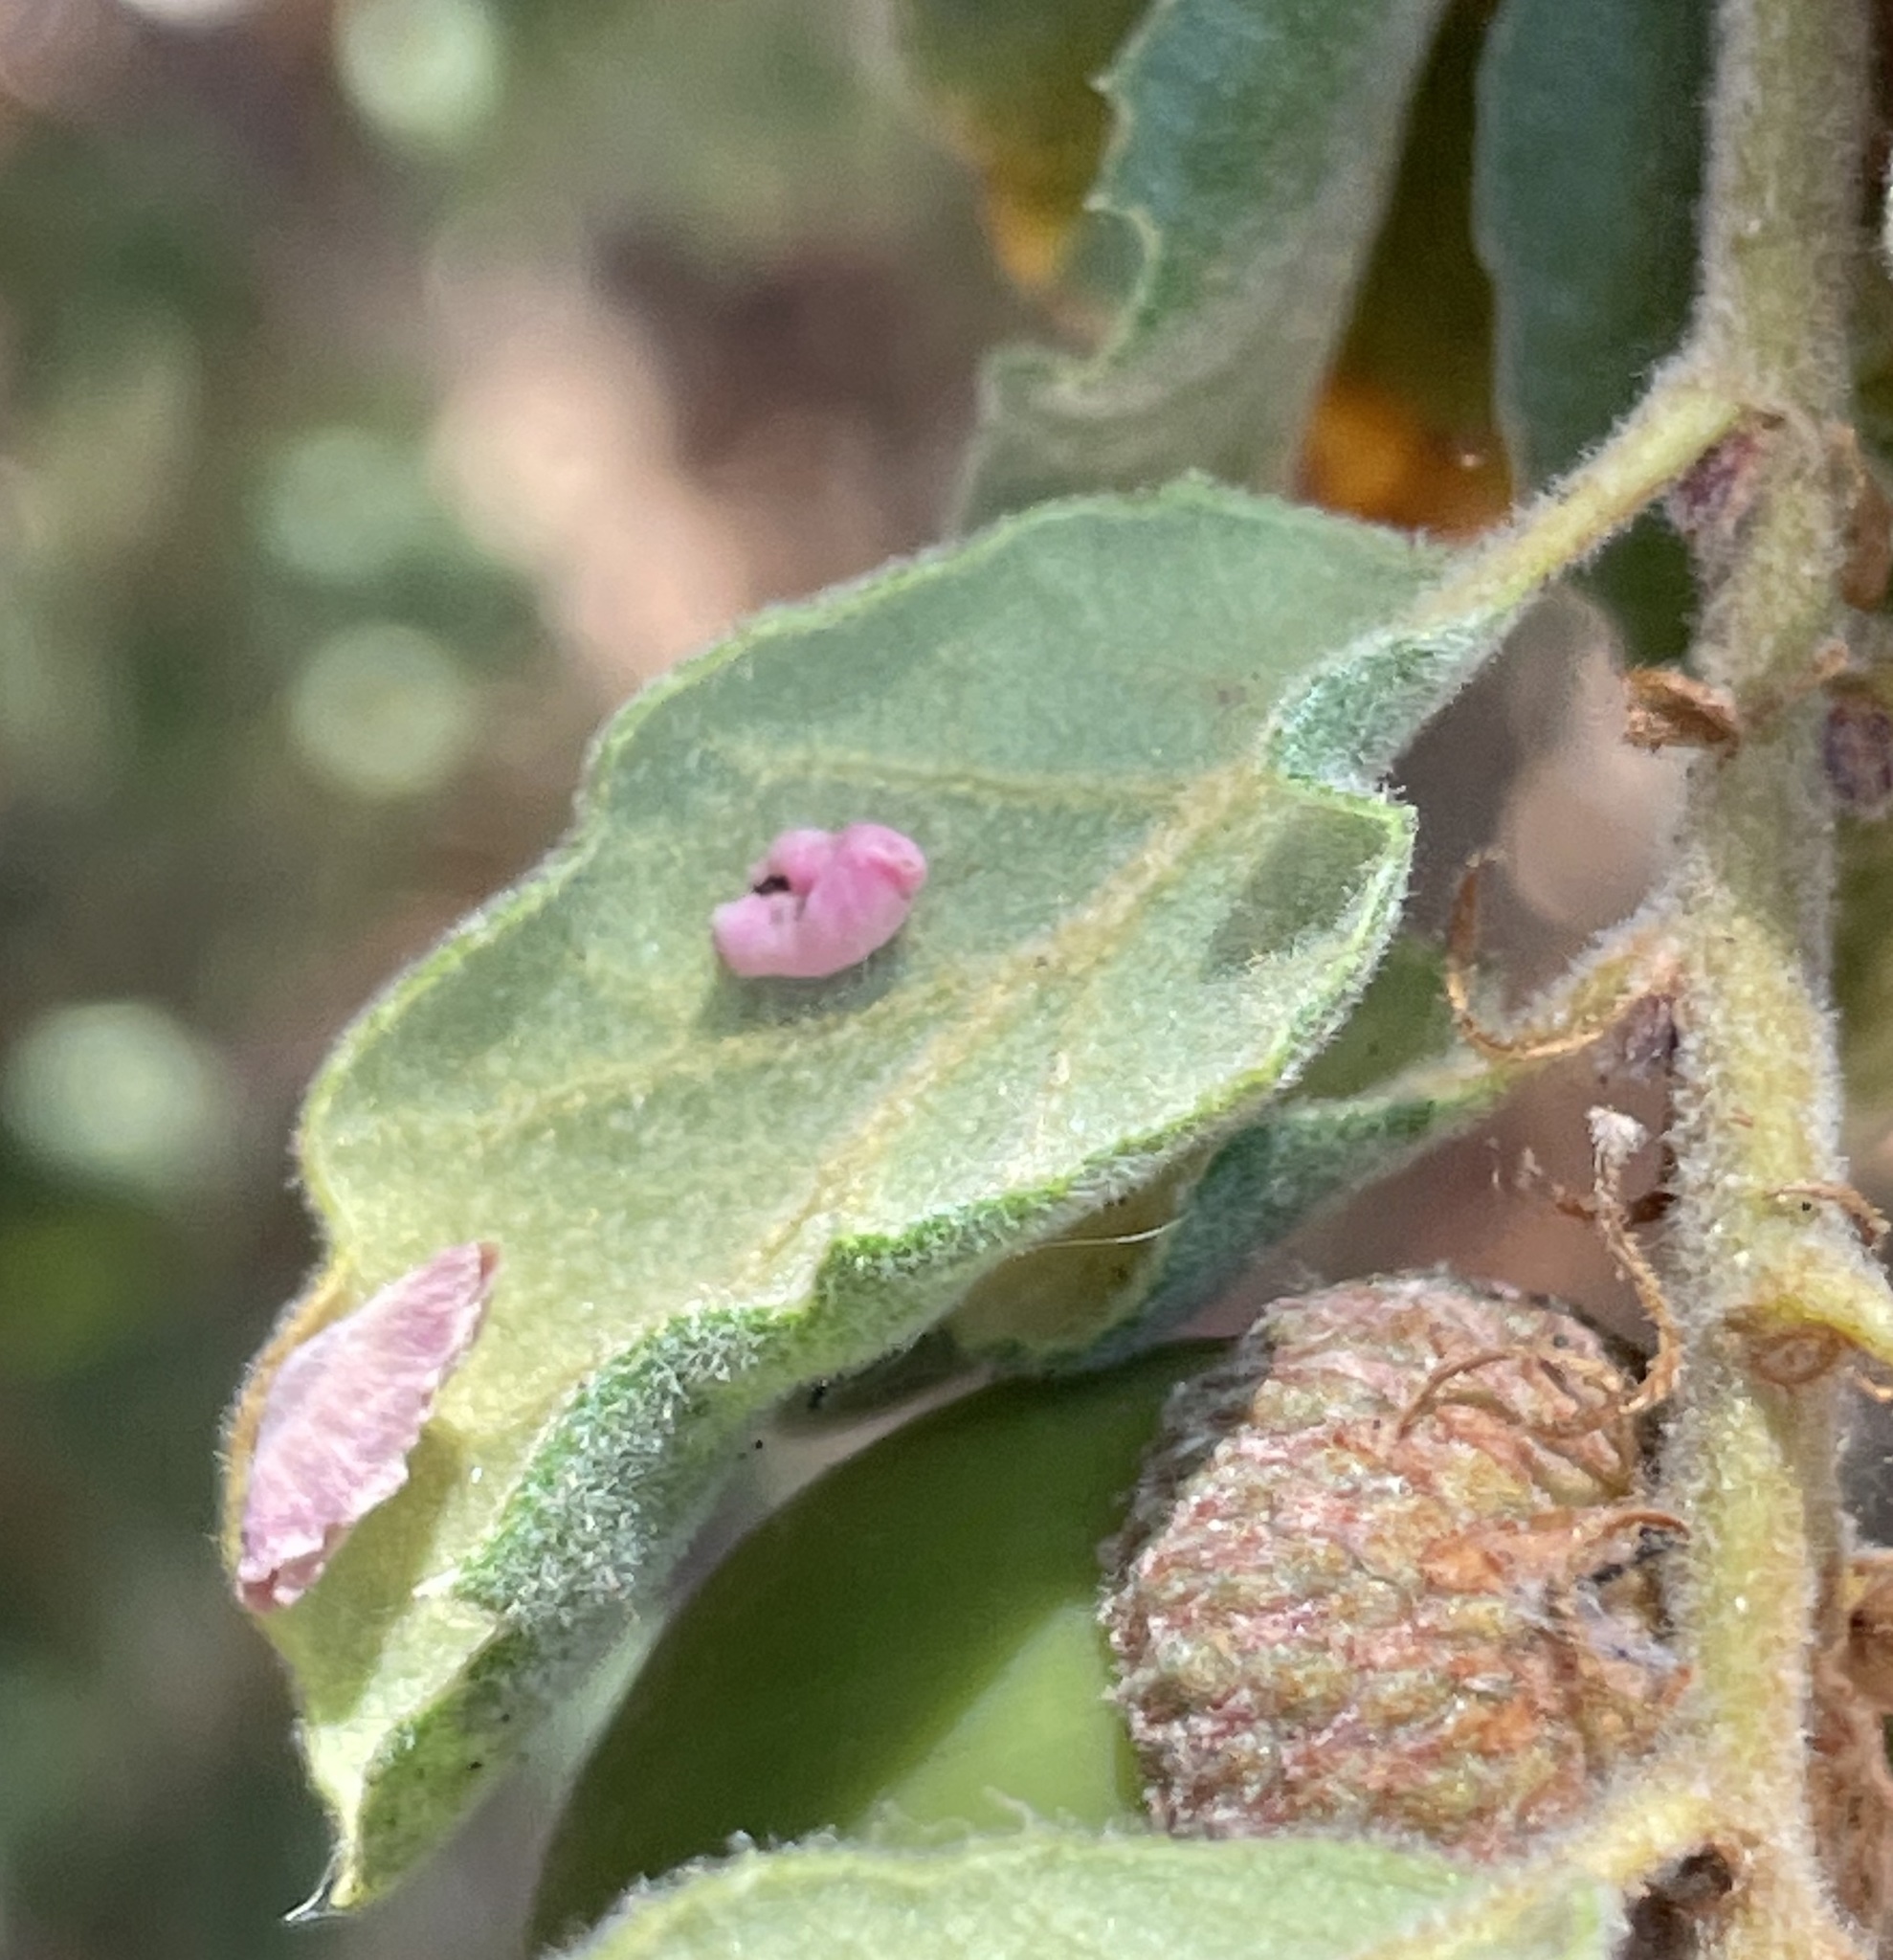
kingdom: Animalia
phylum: Arthropoda
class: Insecta
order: Hymenoptera
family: Cynipidae
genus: Andricus
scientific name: Andricus
